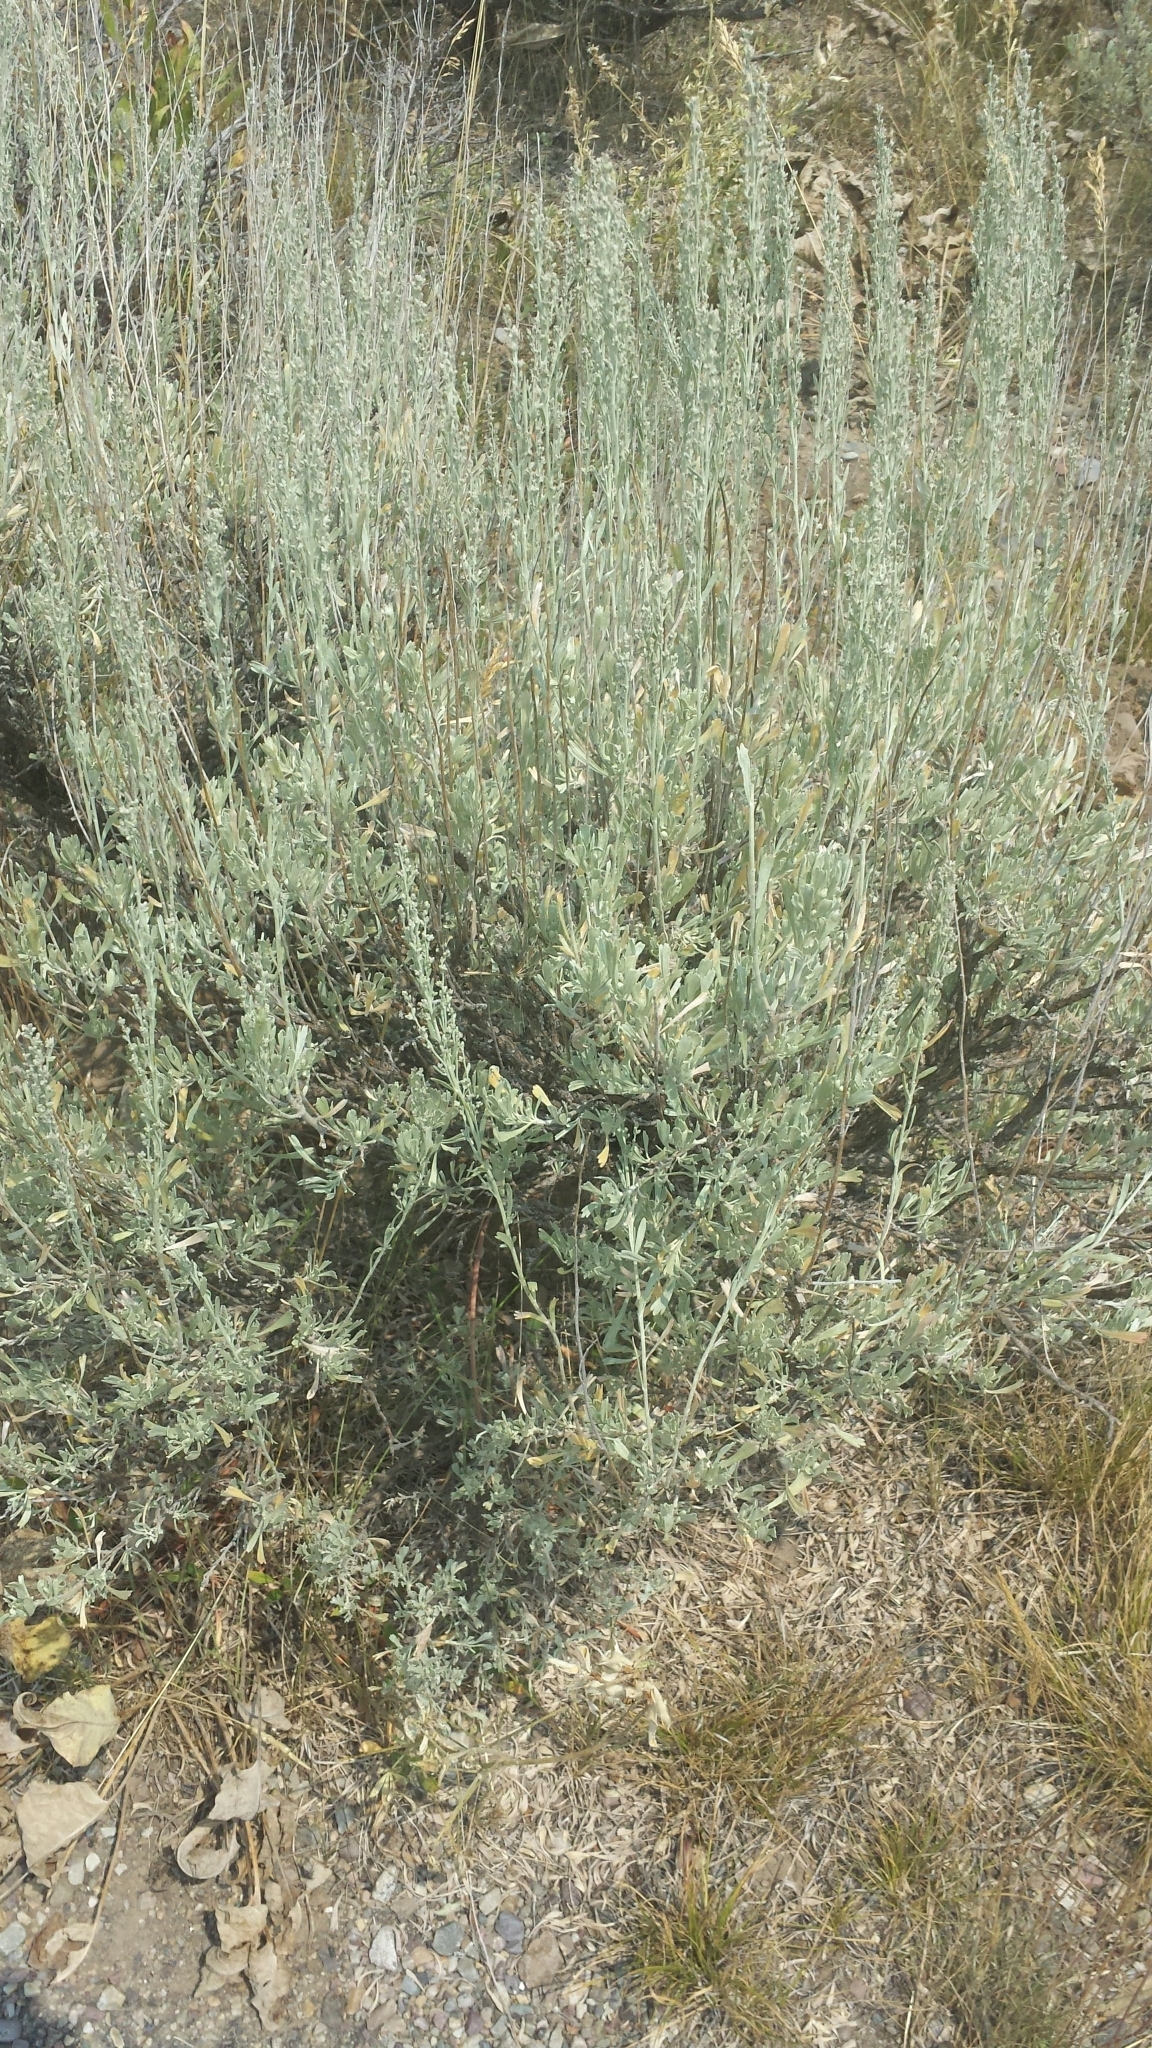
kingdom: Plantae
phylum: Tracheophyta
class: Magnoliopsida
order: Asterales
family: Asteraceae
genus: Artemisia
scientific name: Artemisia tridentata
